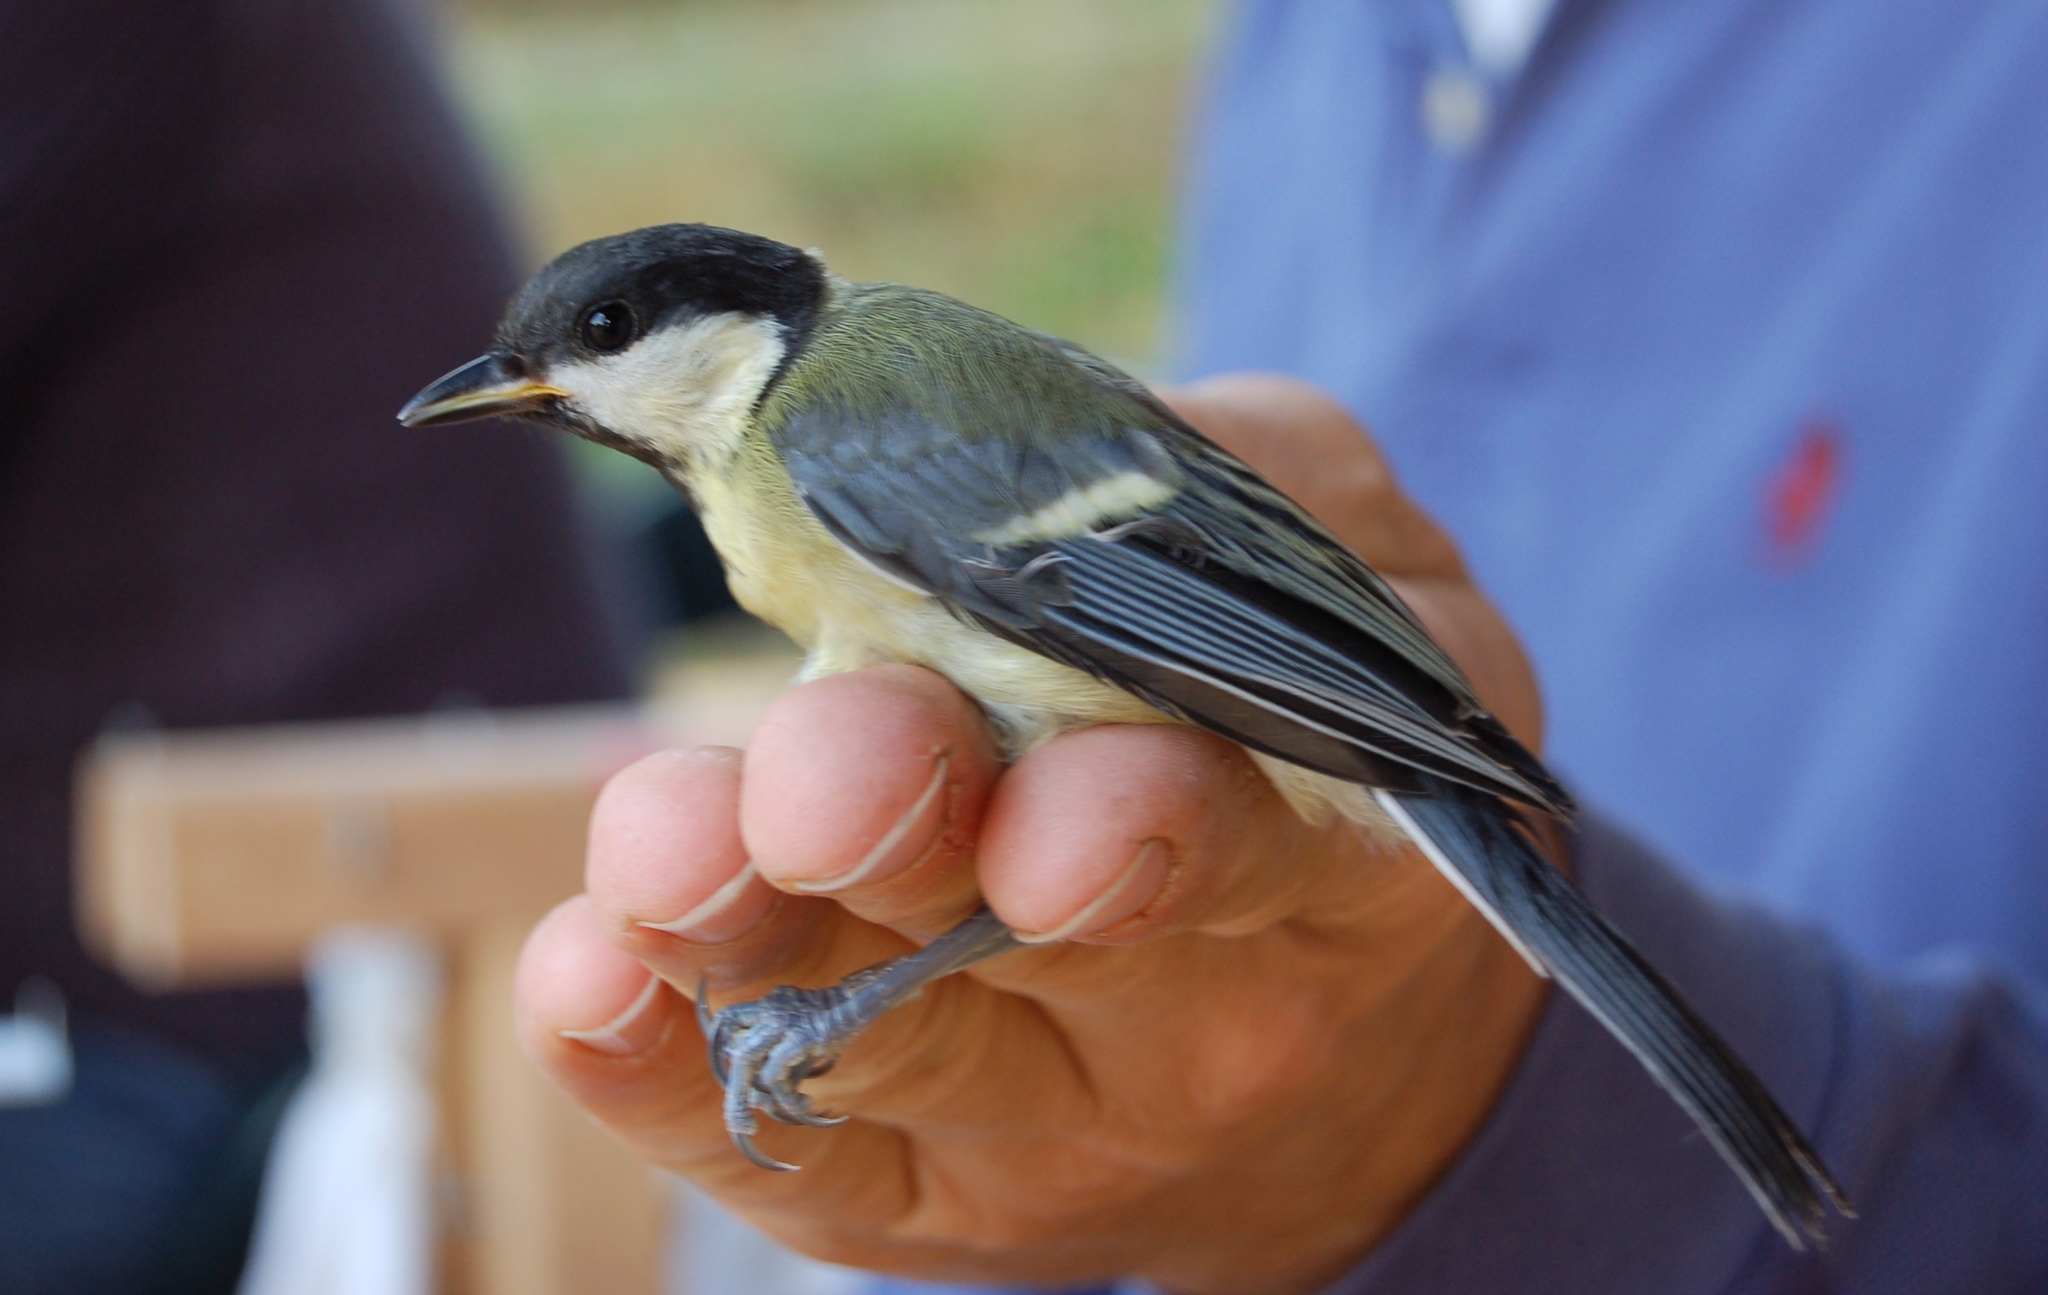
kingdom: Animalia
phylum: Chordata
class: Aves
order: Passeriformes
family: Paridae
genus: Parus
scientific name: Parus major
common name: Great tit
